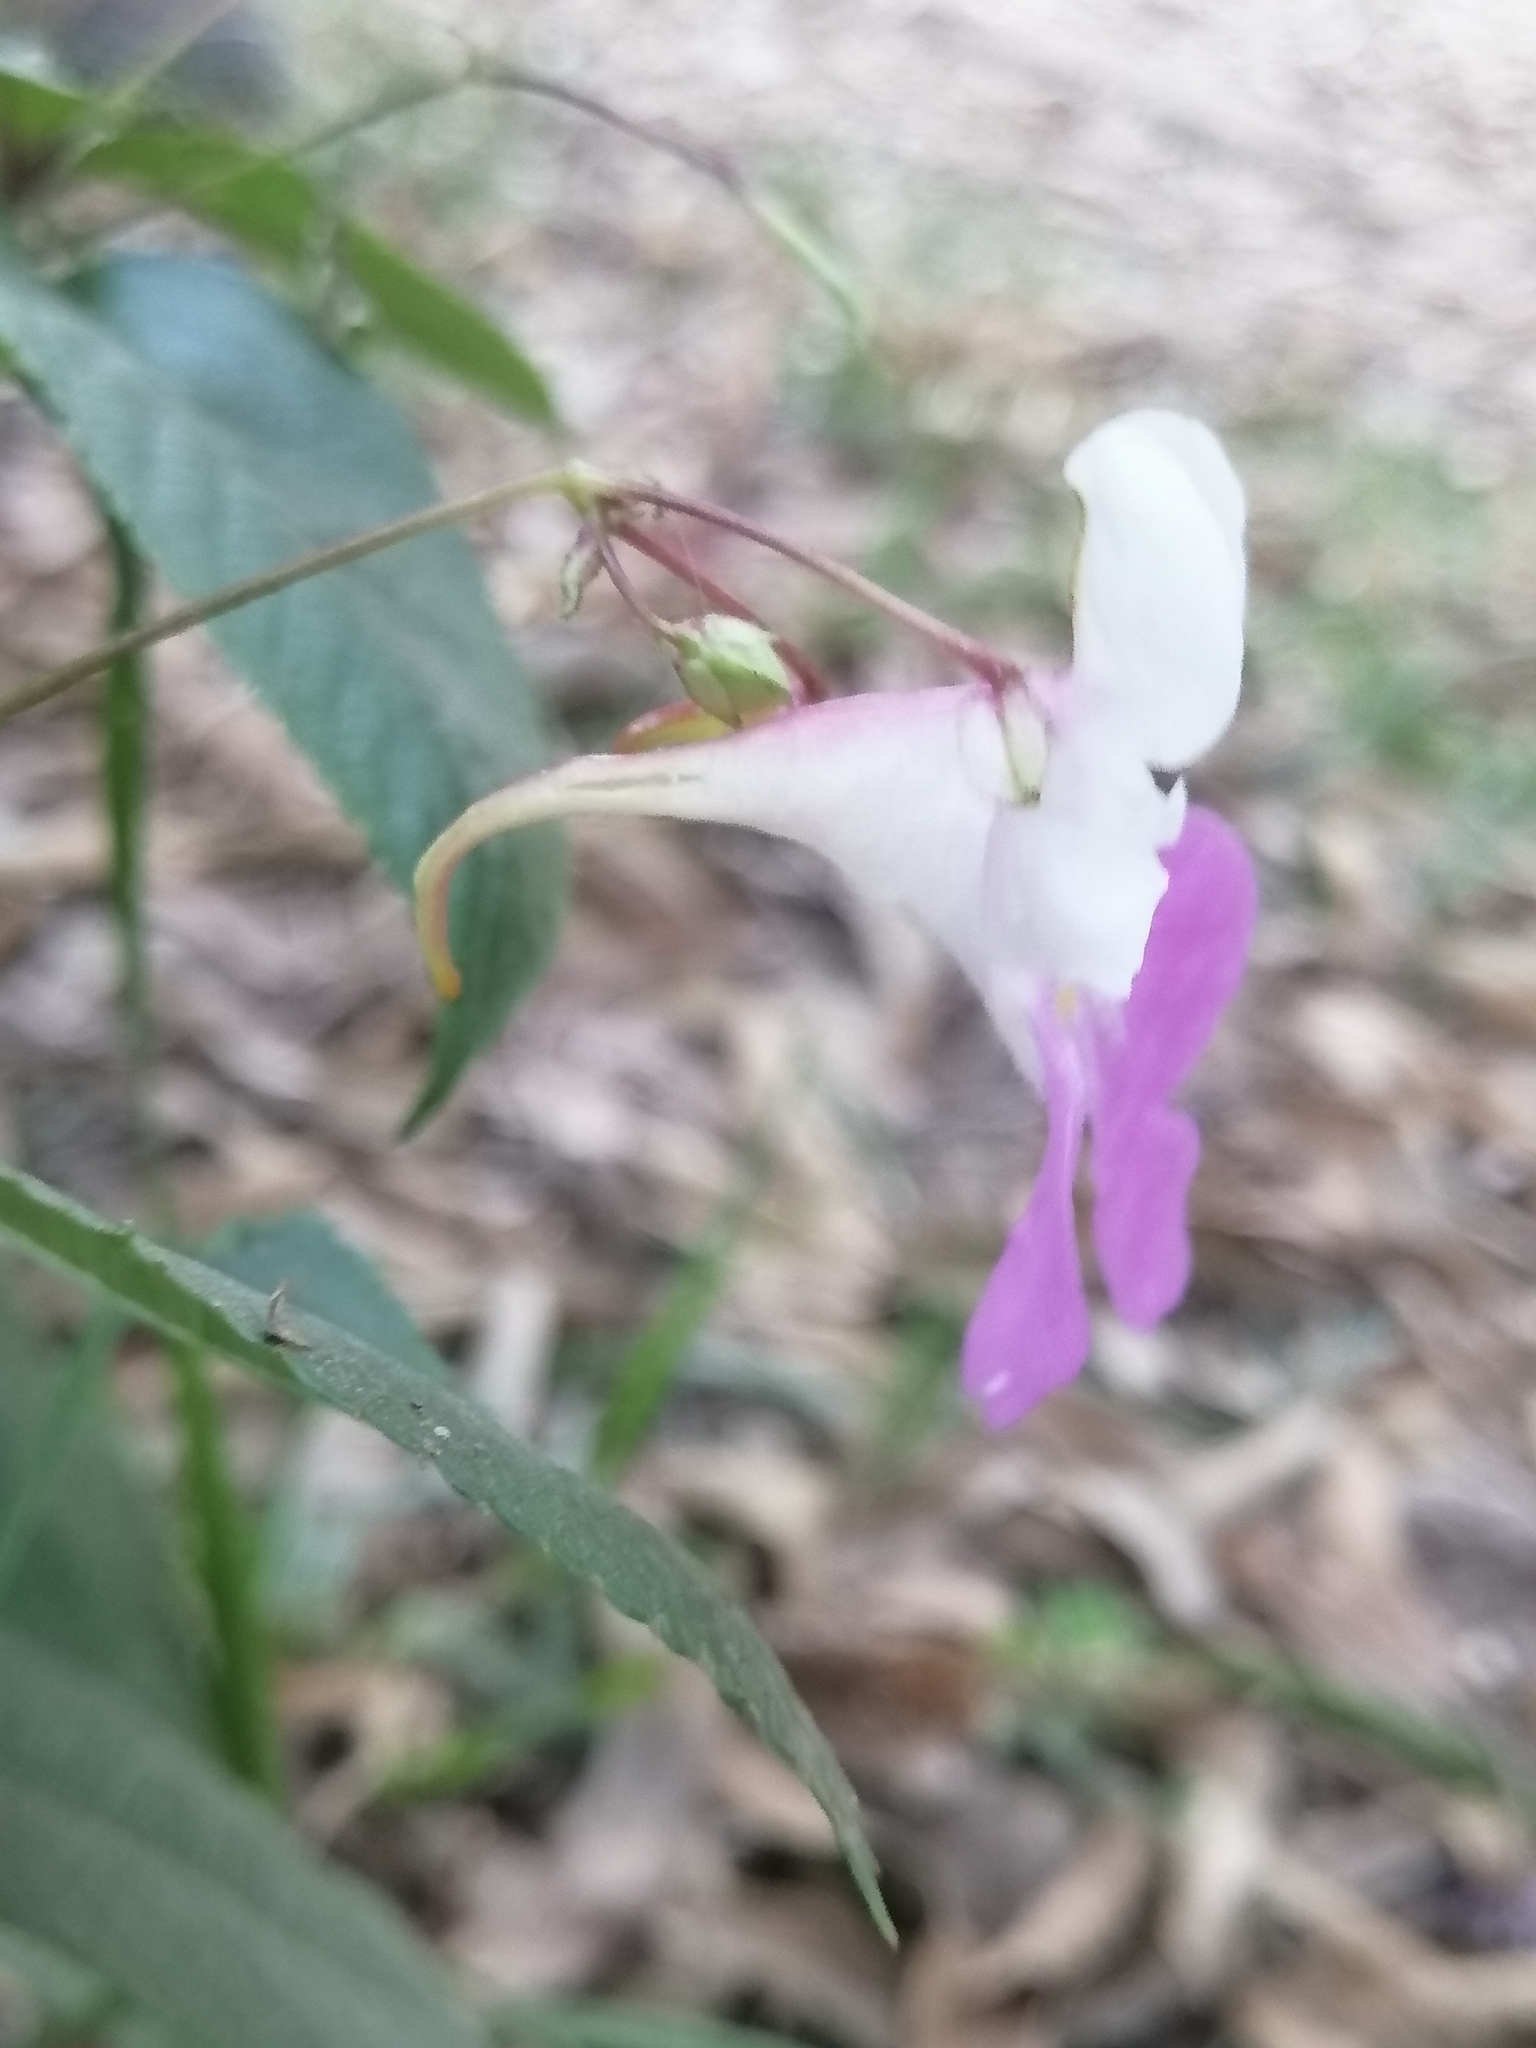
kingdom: Plantae
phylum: Tracheophyta
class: Magnoliopsida
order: Ericales
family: Balsaminaceae
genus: Impatiens
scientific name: Impatiens balfourii
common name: Balfour's touch-me-not
